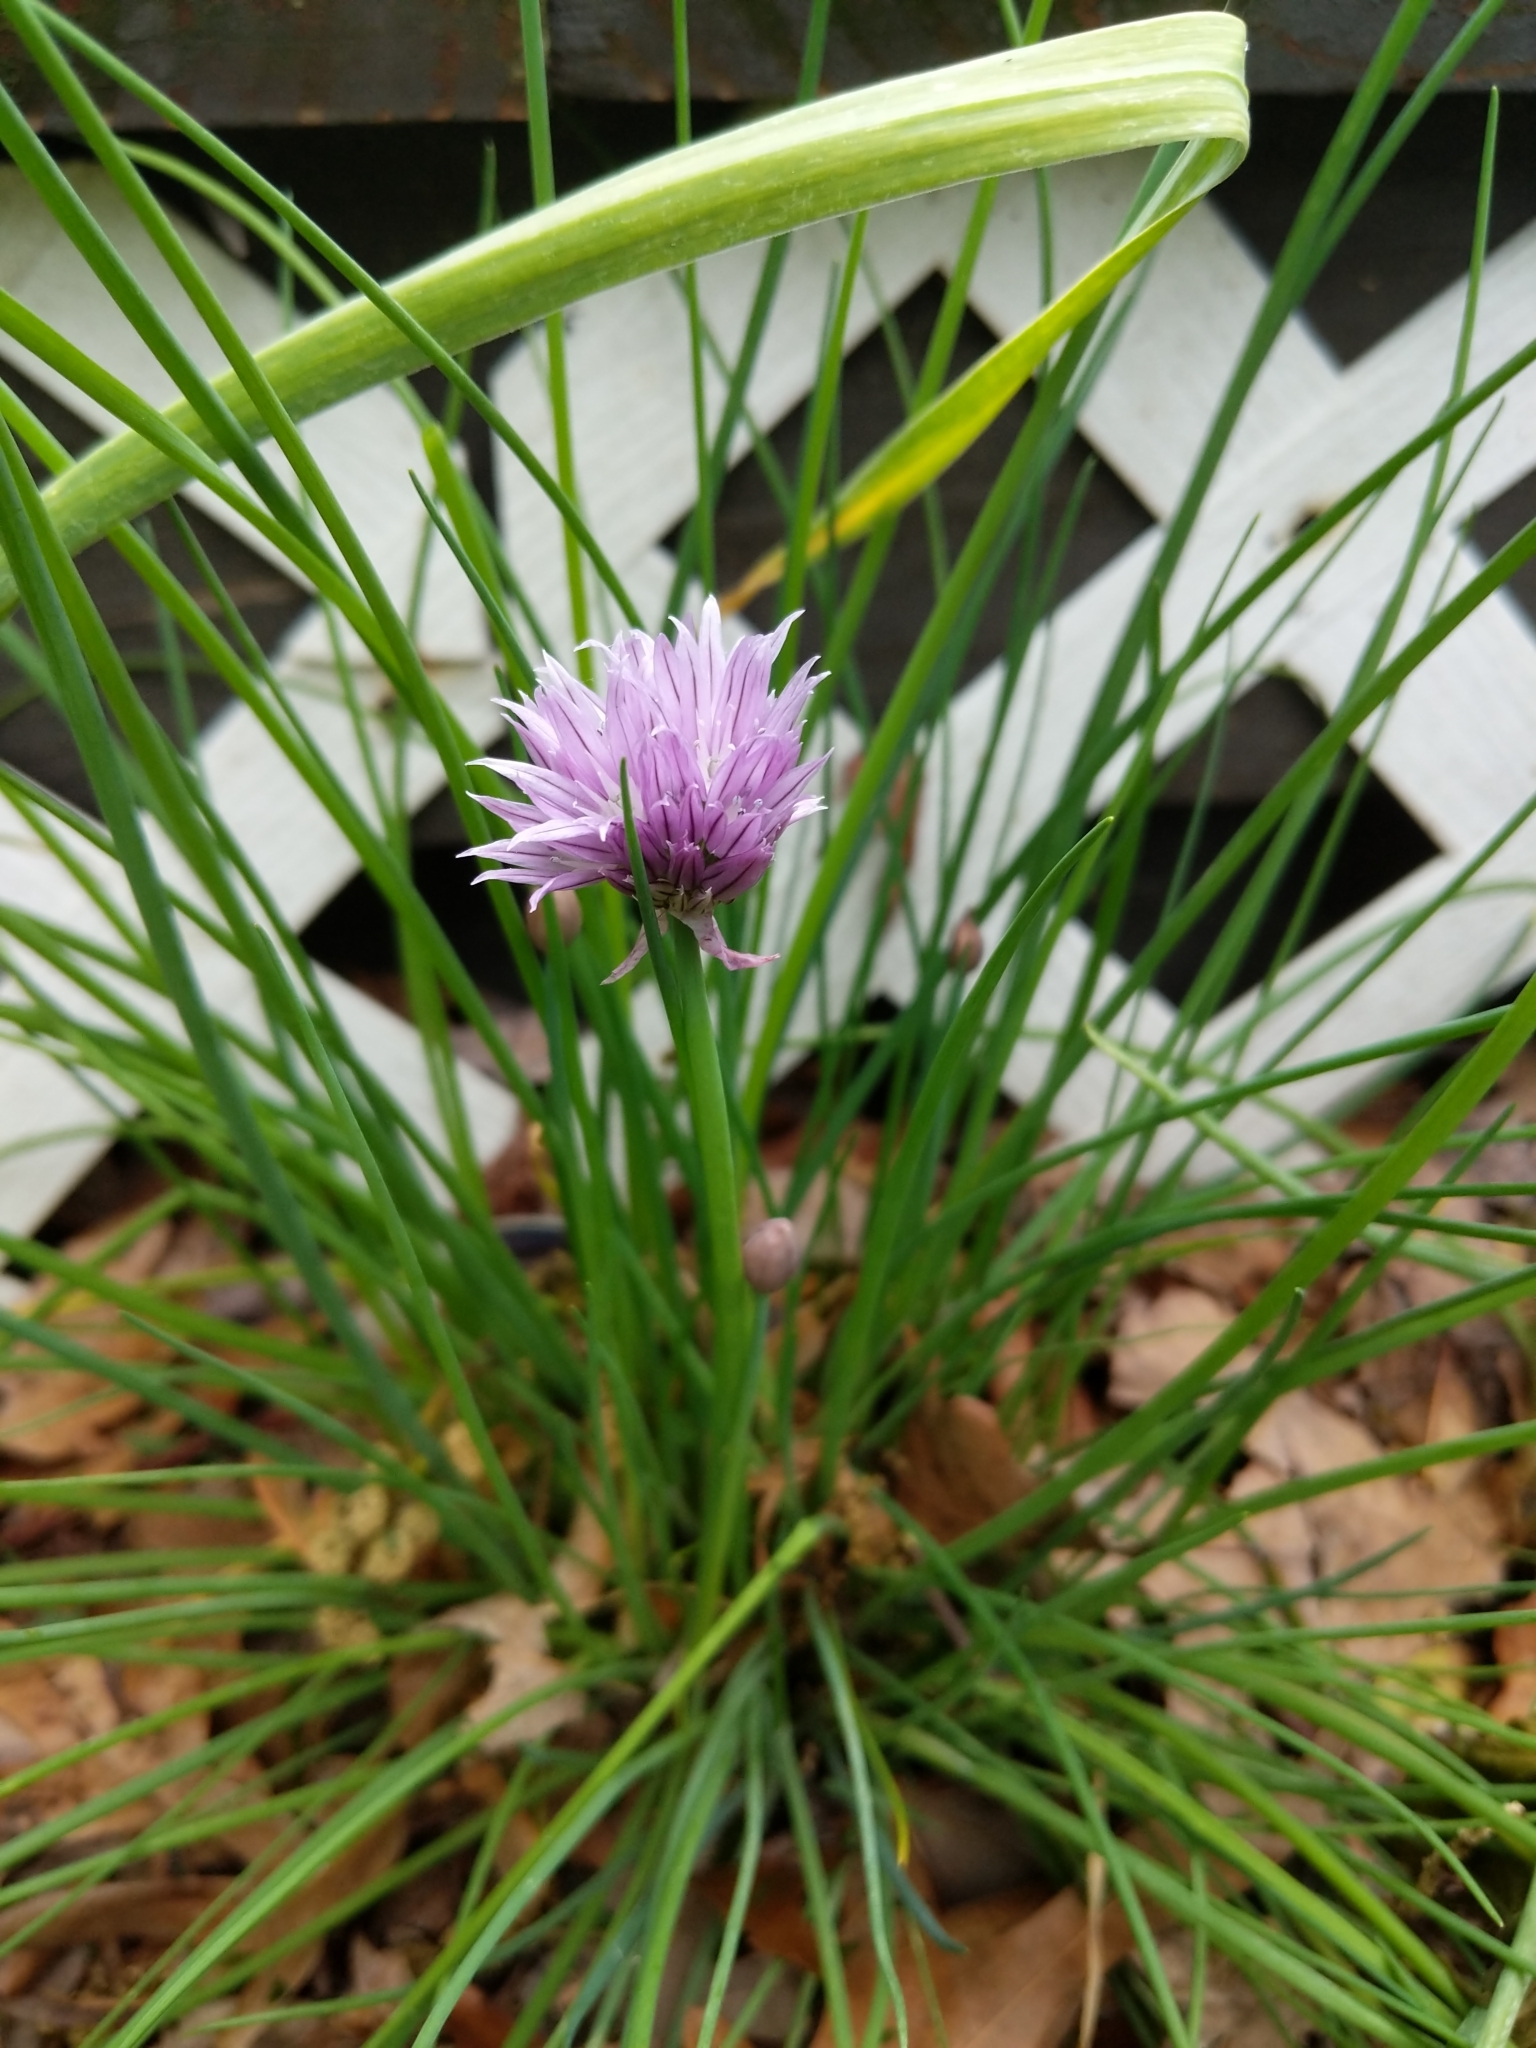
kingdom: Plantae
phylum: Tracheophyta
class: Liliopsida
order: Asparagales
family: Amaryllidaceae
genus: Allium
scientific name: Allium schoenoprasum
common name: Chives
